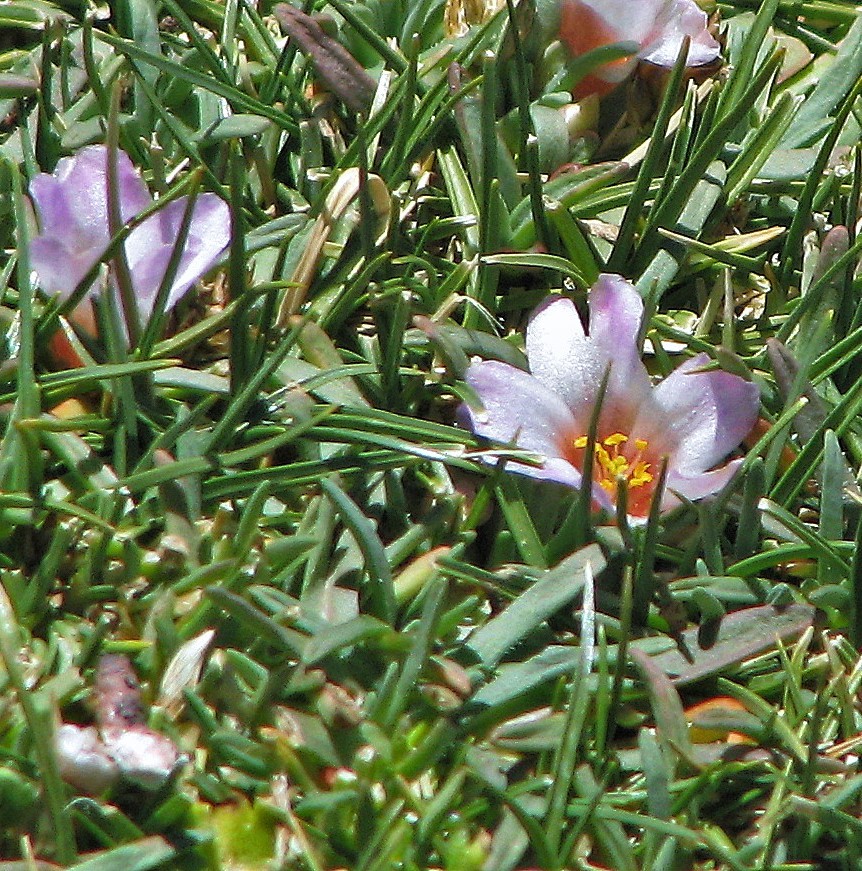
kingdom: Plantae
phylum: Tracheophyta
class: Magnoliopsida
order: Caryophyllales
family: Montiaceae
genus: Calandrinia
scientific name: Calandrinia compacta
